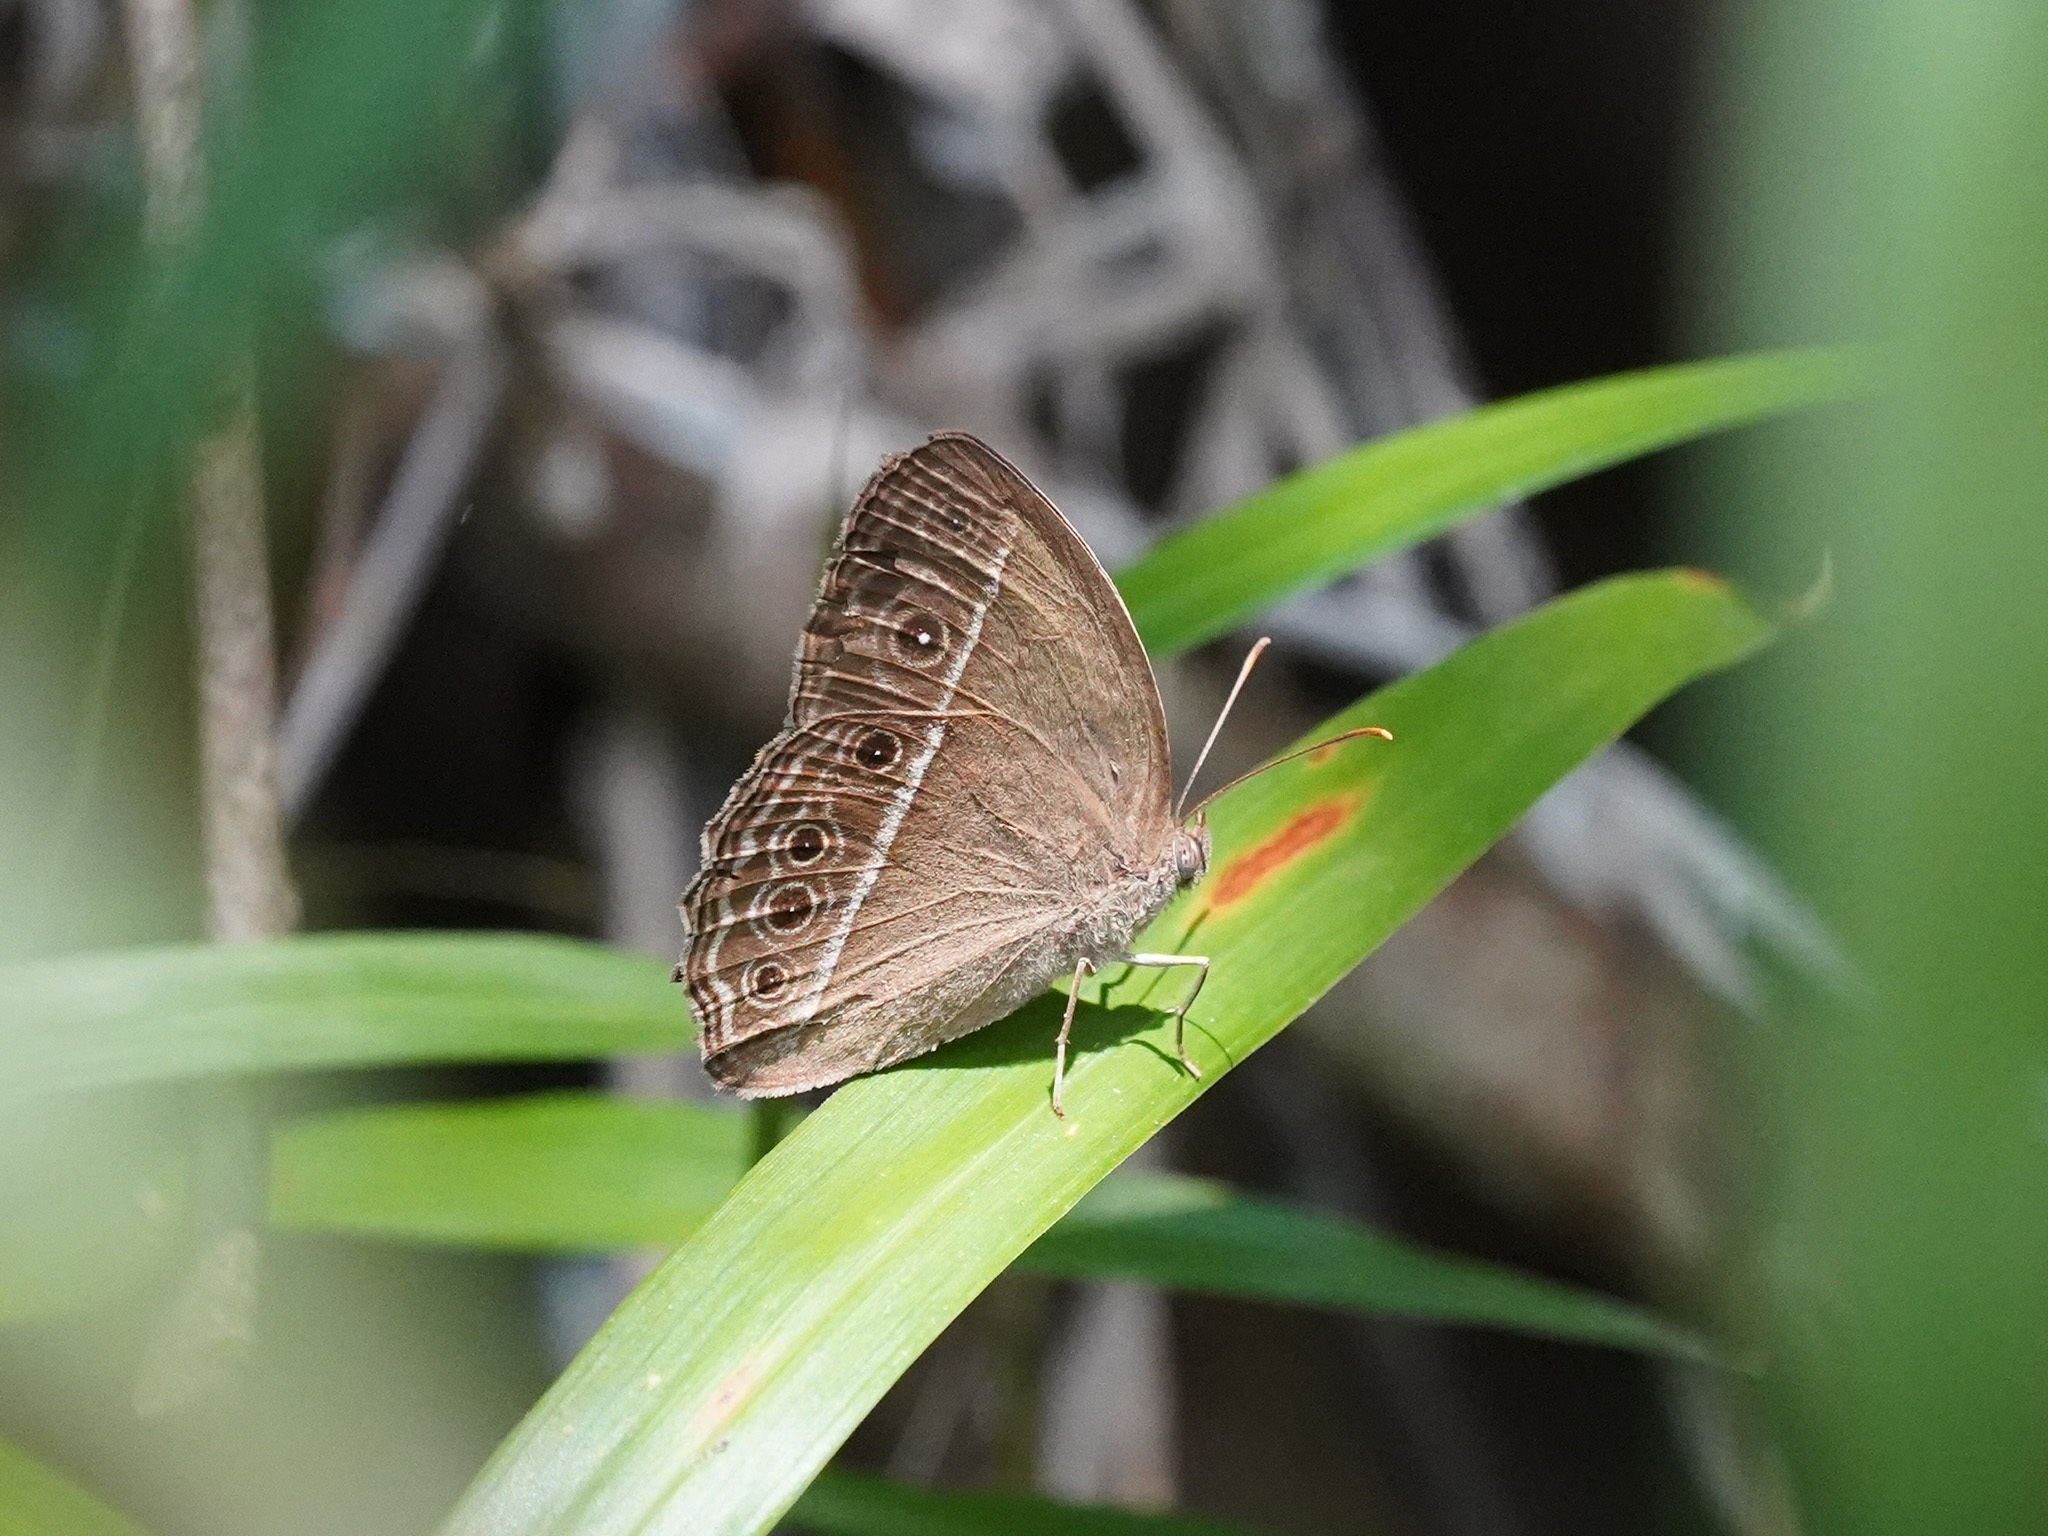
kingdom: Animalia
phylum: Arthropoda
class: Insecta
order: Lepidoptera
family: Nymphalidae
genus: Mycalesis
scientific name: Mycalesis mineus
